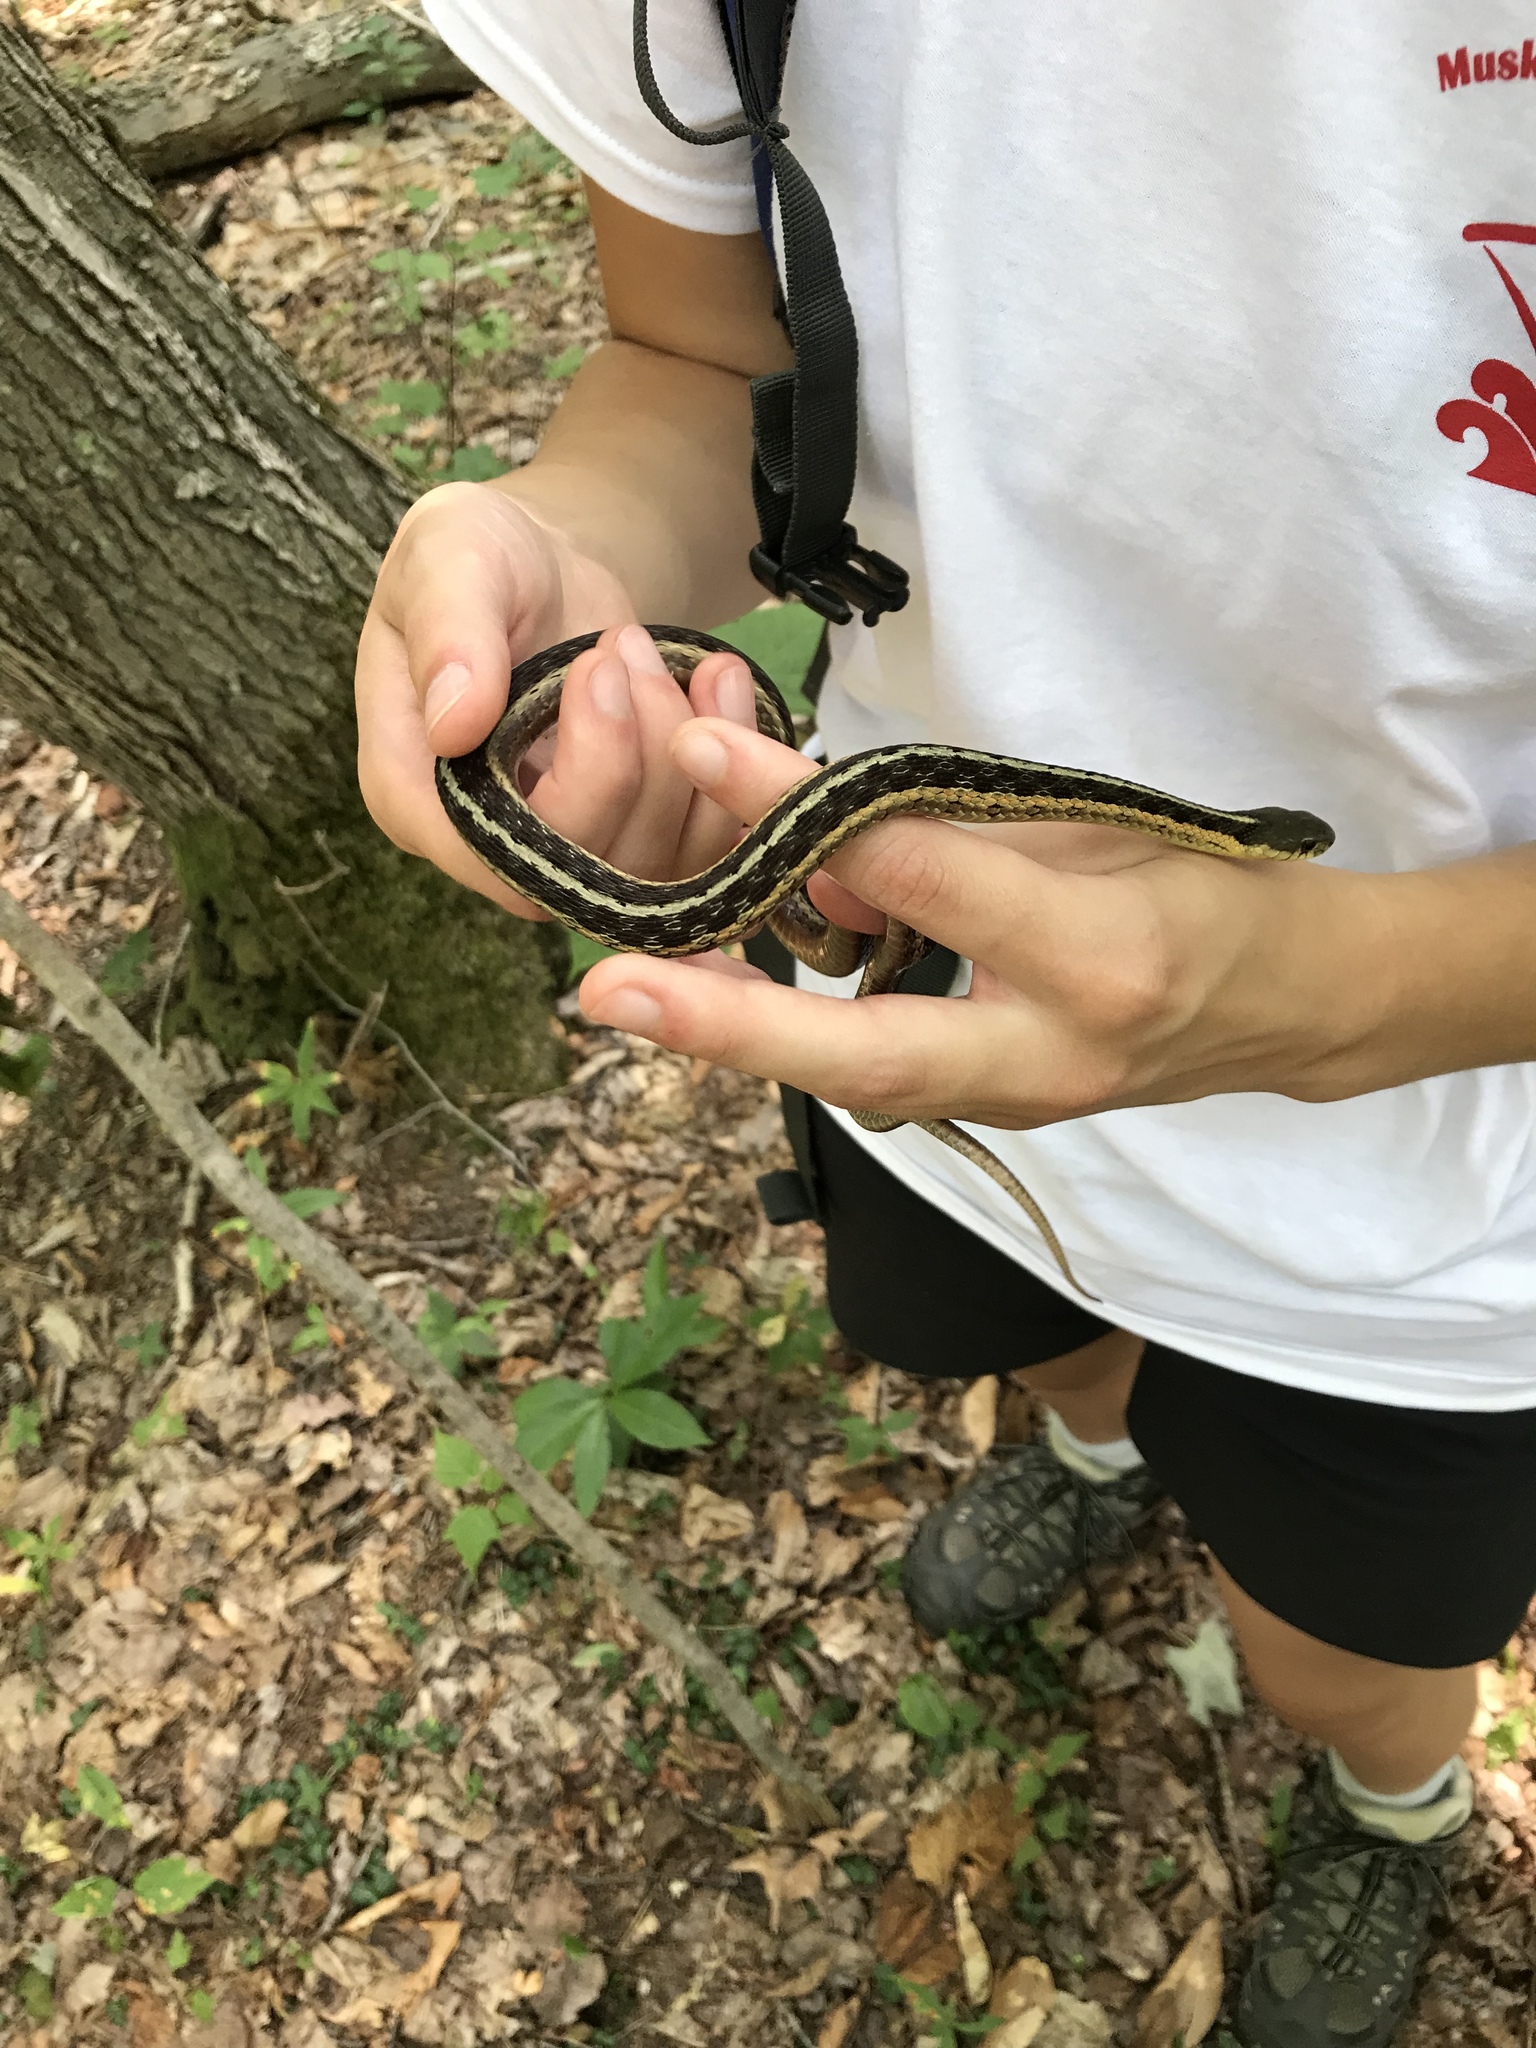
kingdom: Animalia
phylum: Chordata
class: Squamata
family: Colubridae
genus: Thamnophis
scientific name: Thamnophis sirtalis
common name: Common garter snake
